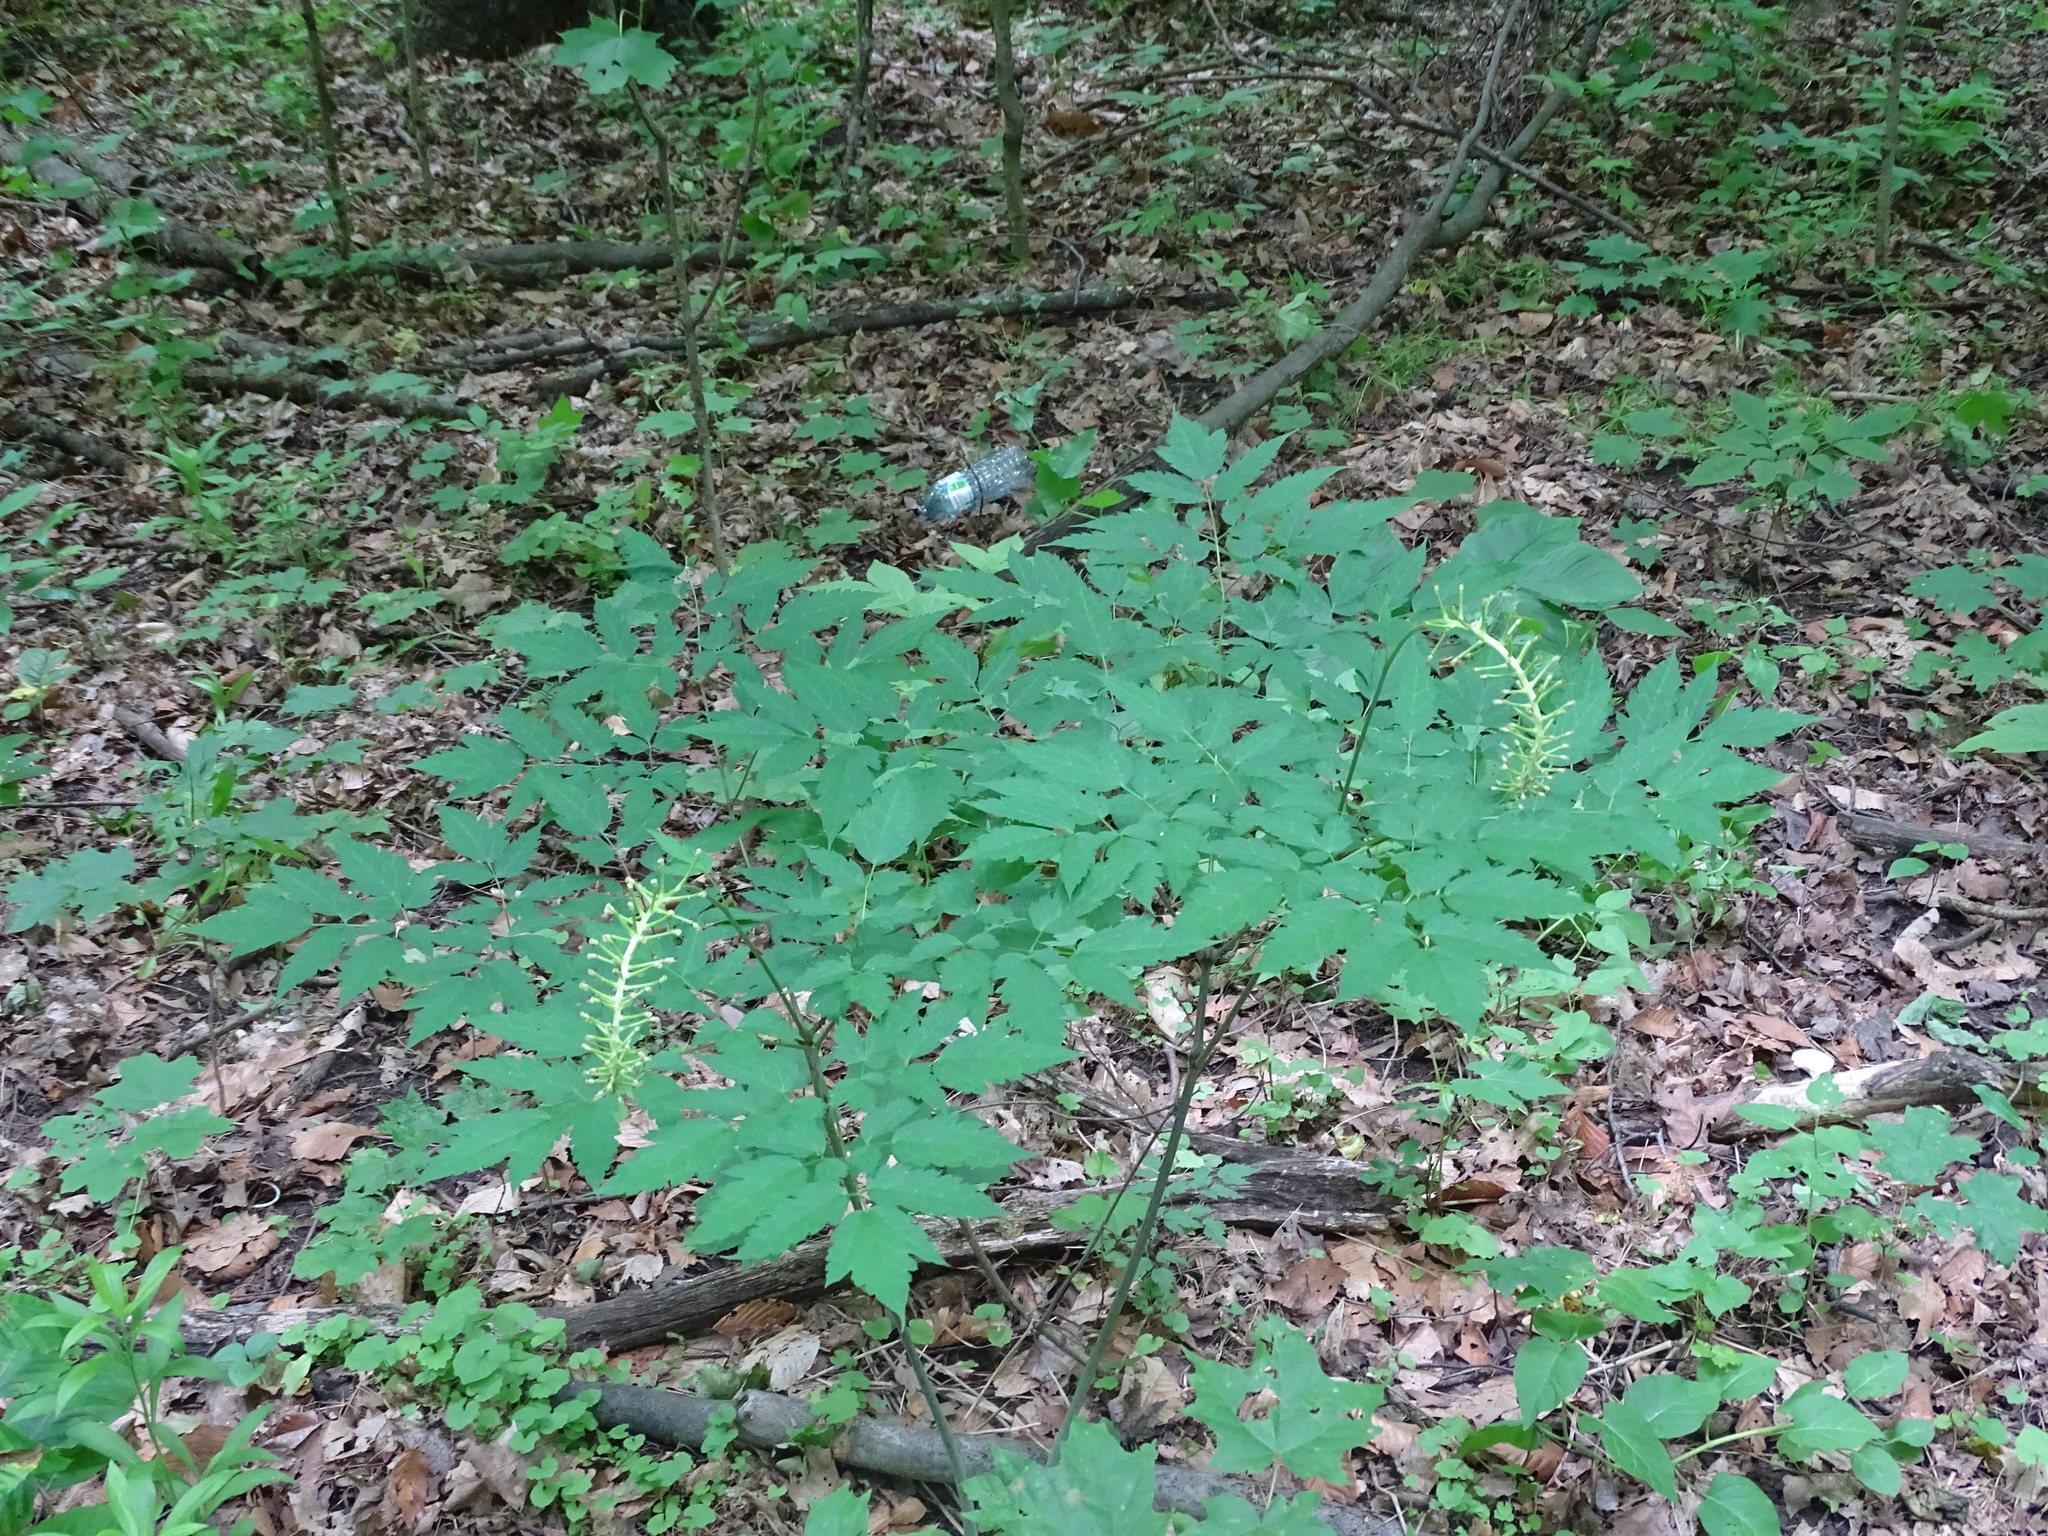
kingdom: Plantae
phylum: Tracheophyta
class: Magnoliopsida
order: Ranunculales
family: Ranunculaceae
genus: Actaea
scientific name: Actaea pachypoda
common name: Doll's-eyes
